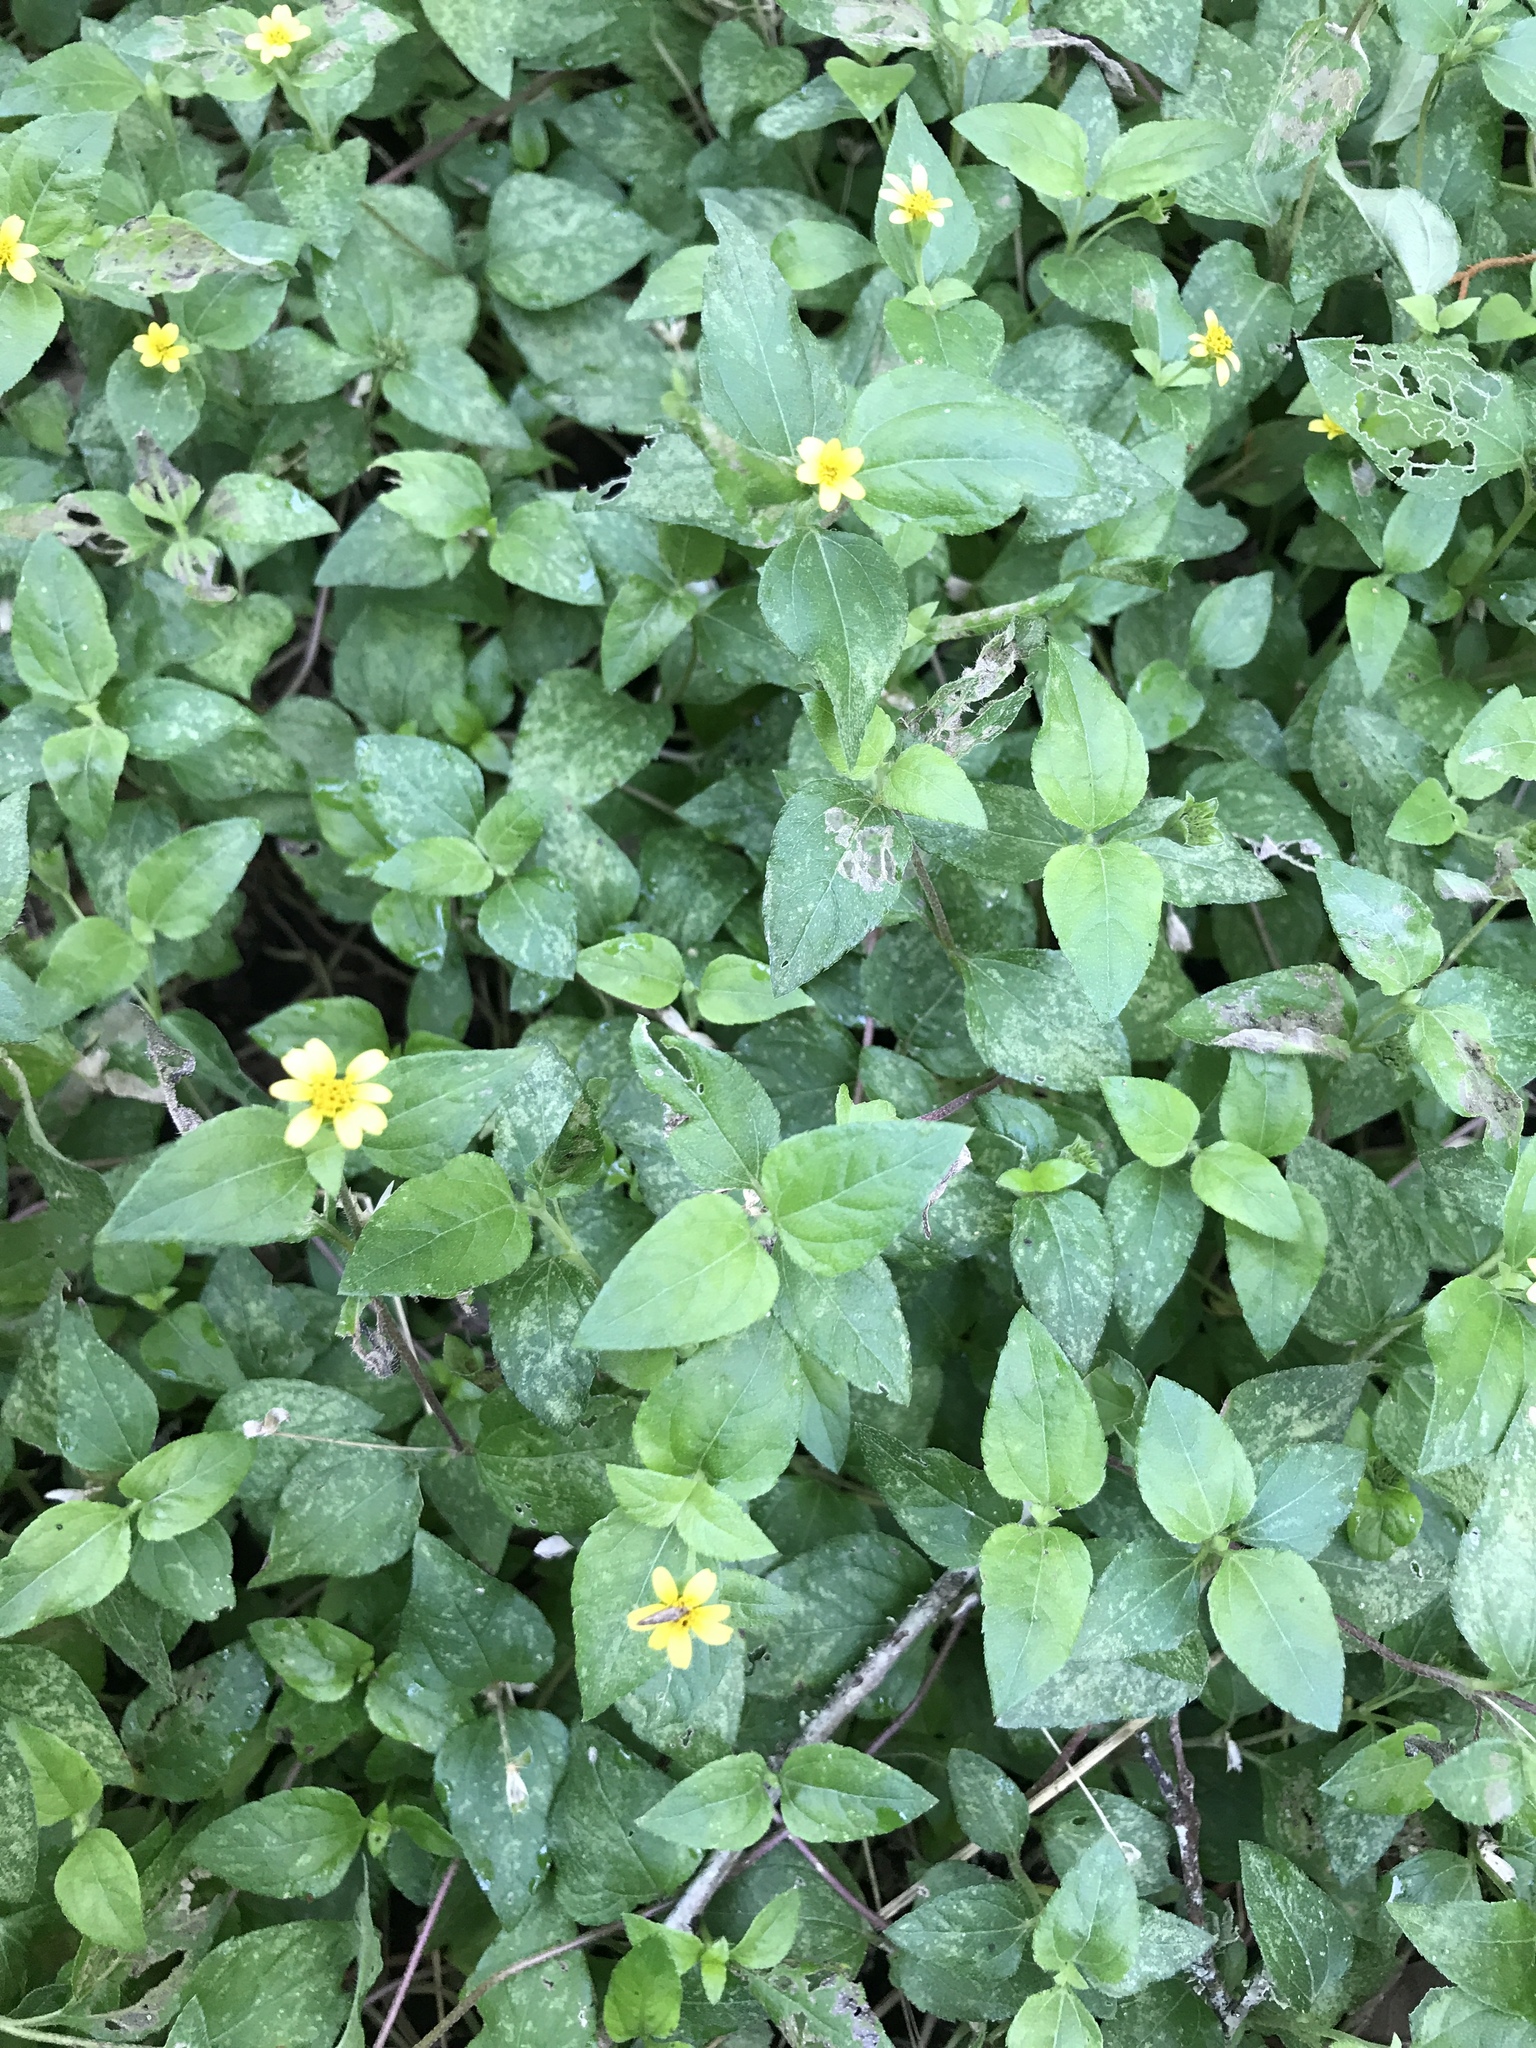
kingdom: Plantae
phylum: Tracheophyta
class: Magnoliopsida
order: Asterales
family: Asteraceae
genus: Calyptocarpus
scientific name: Calyptocarpus vialis
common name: Straggler daisy
